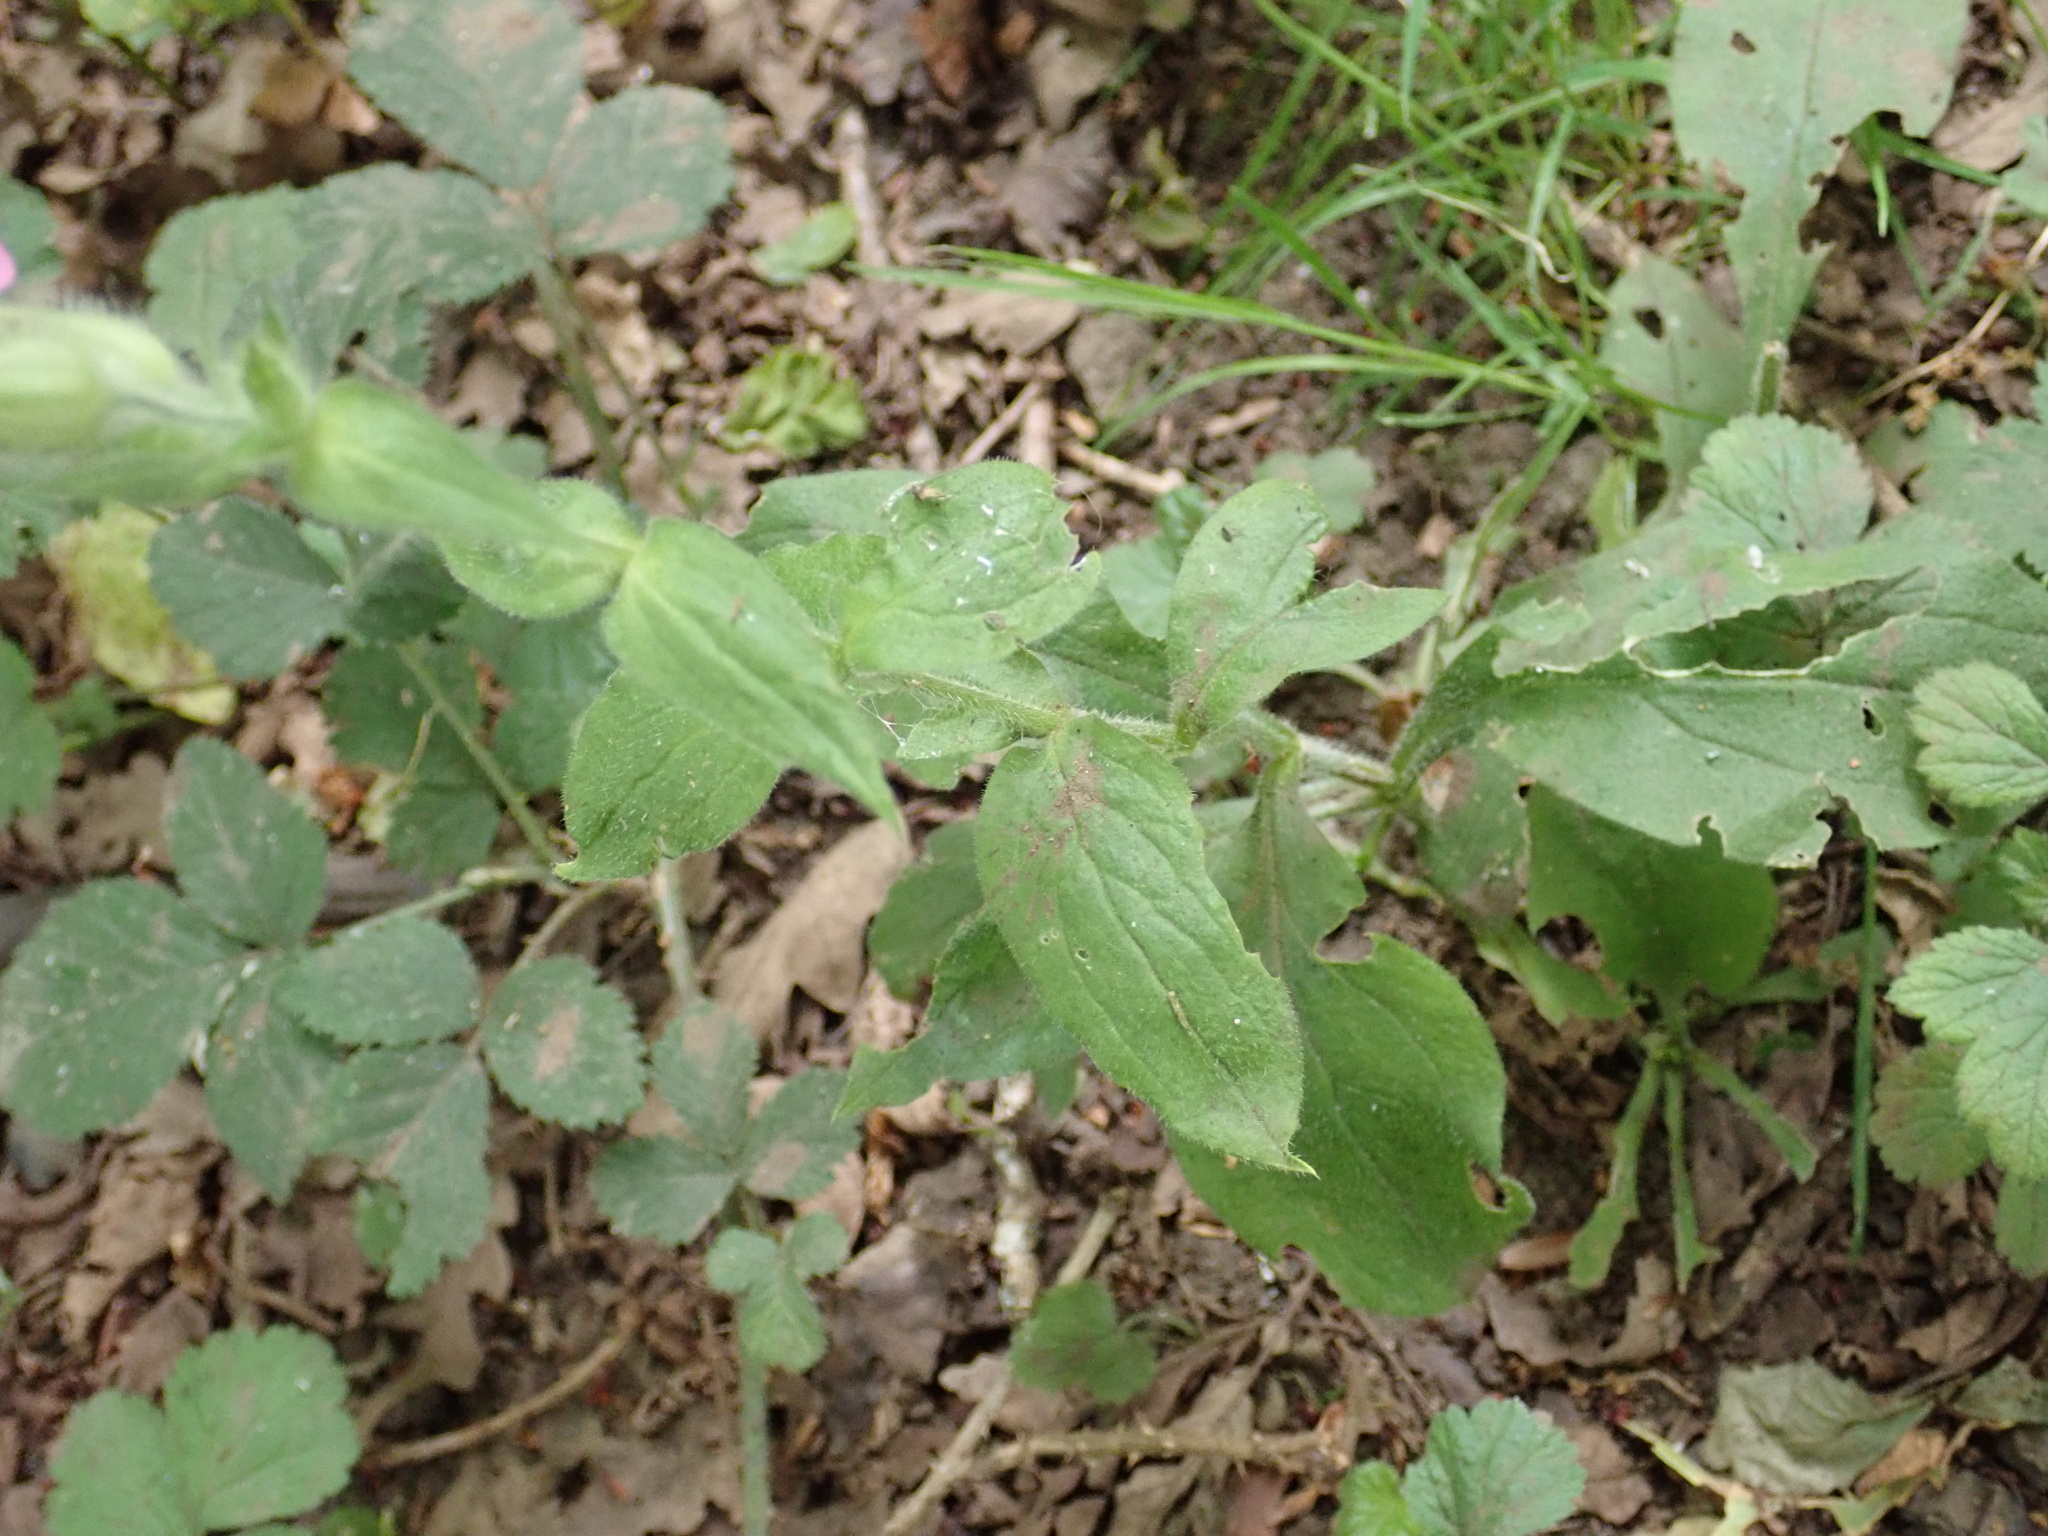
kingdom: Plantae
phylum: Tracheophyta
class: Magnoliopsida
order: Caryophyllales
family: Caryophyllaceae
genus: Silene
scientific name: Silene dioica
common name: Red campion
